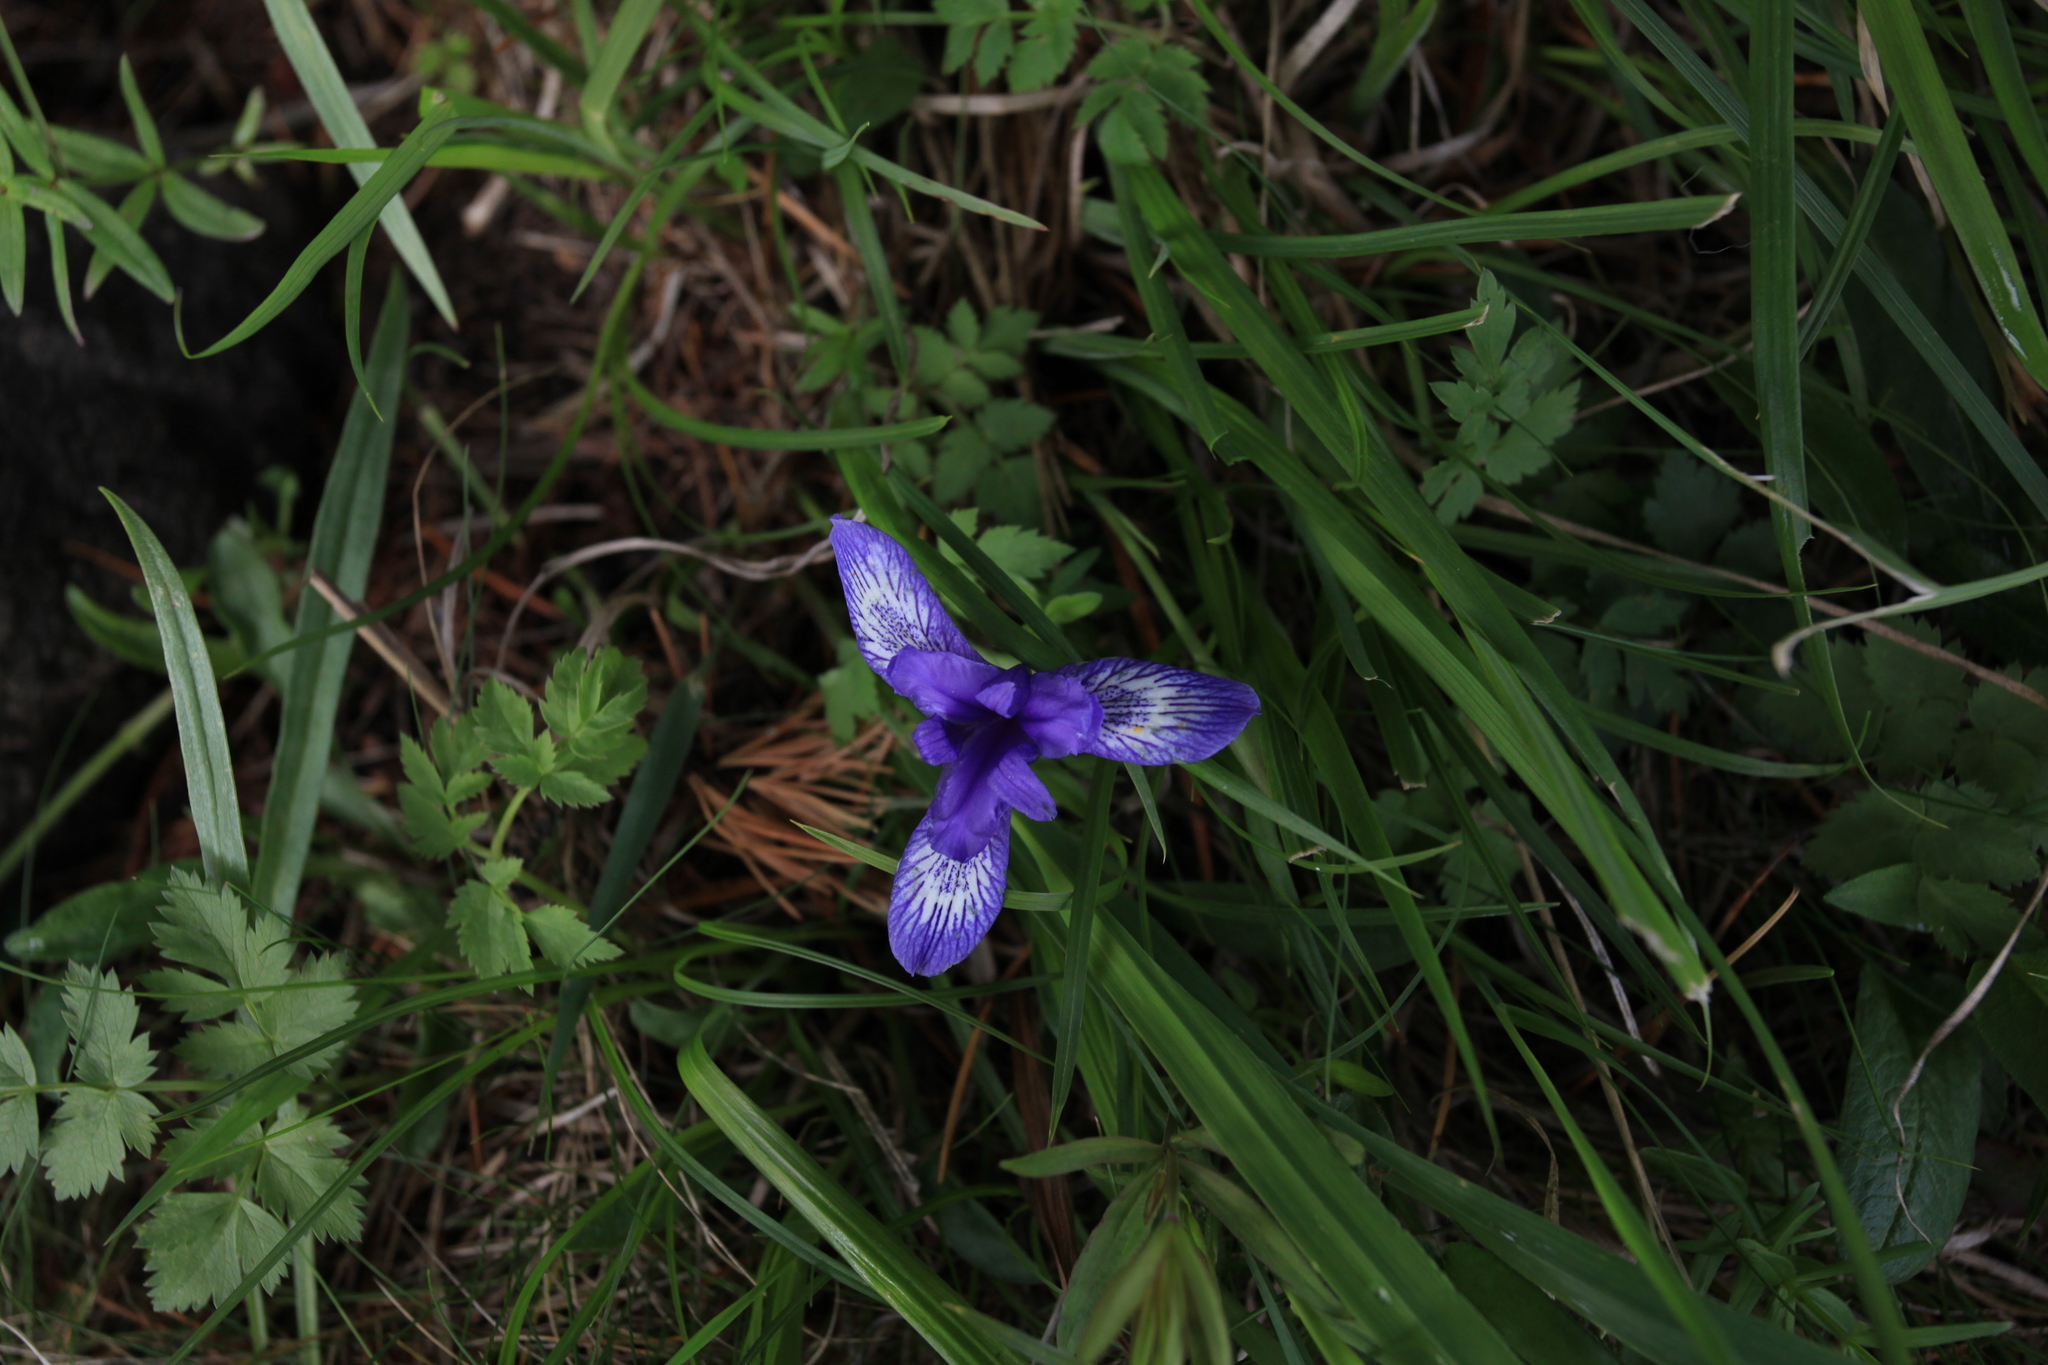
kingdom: Plantae
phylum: Tracheophyta
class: Liliopsida
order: Asparagales
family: Iridaceae
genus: Iris
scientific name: Iris ruthenica
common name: Purple-bract iris
